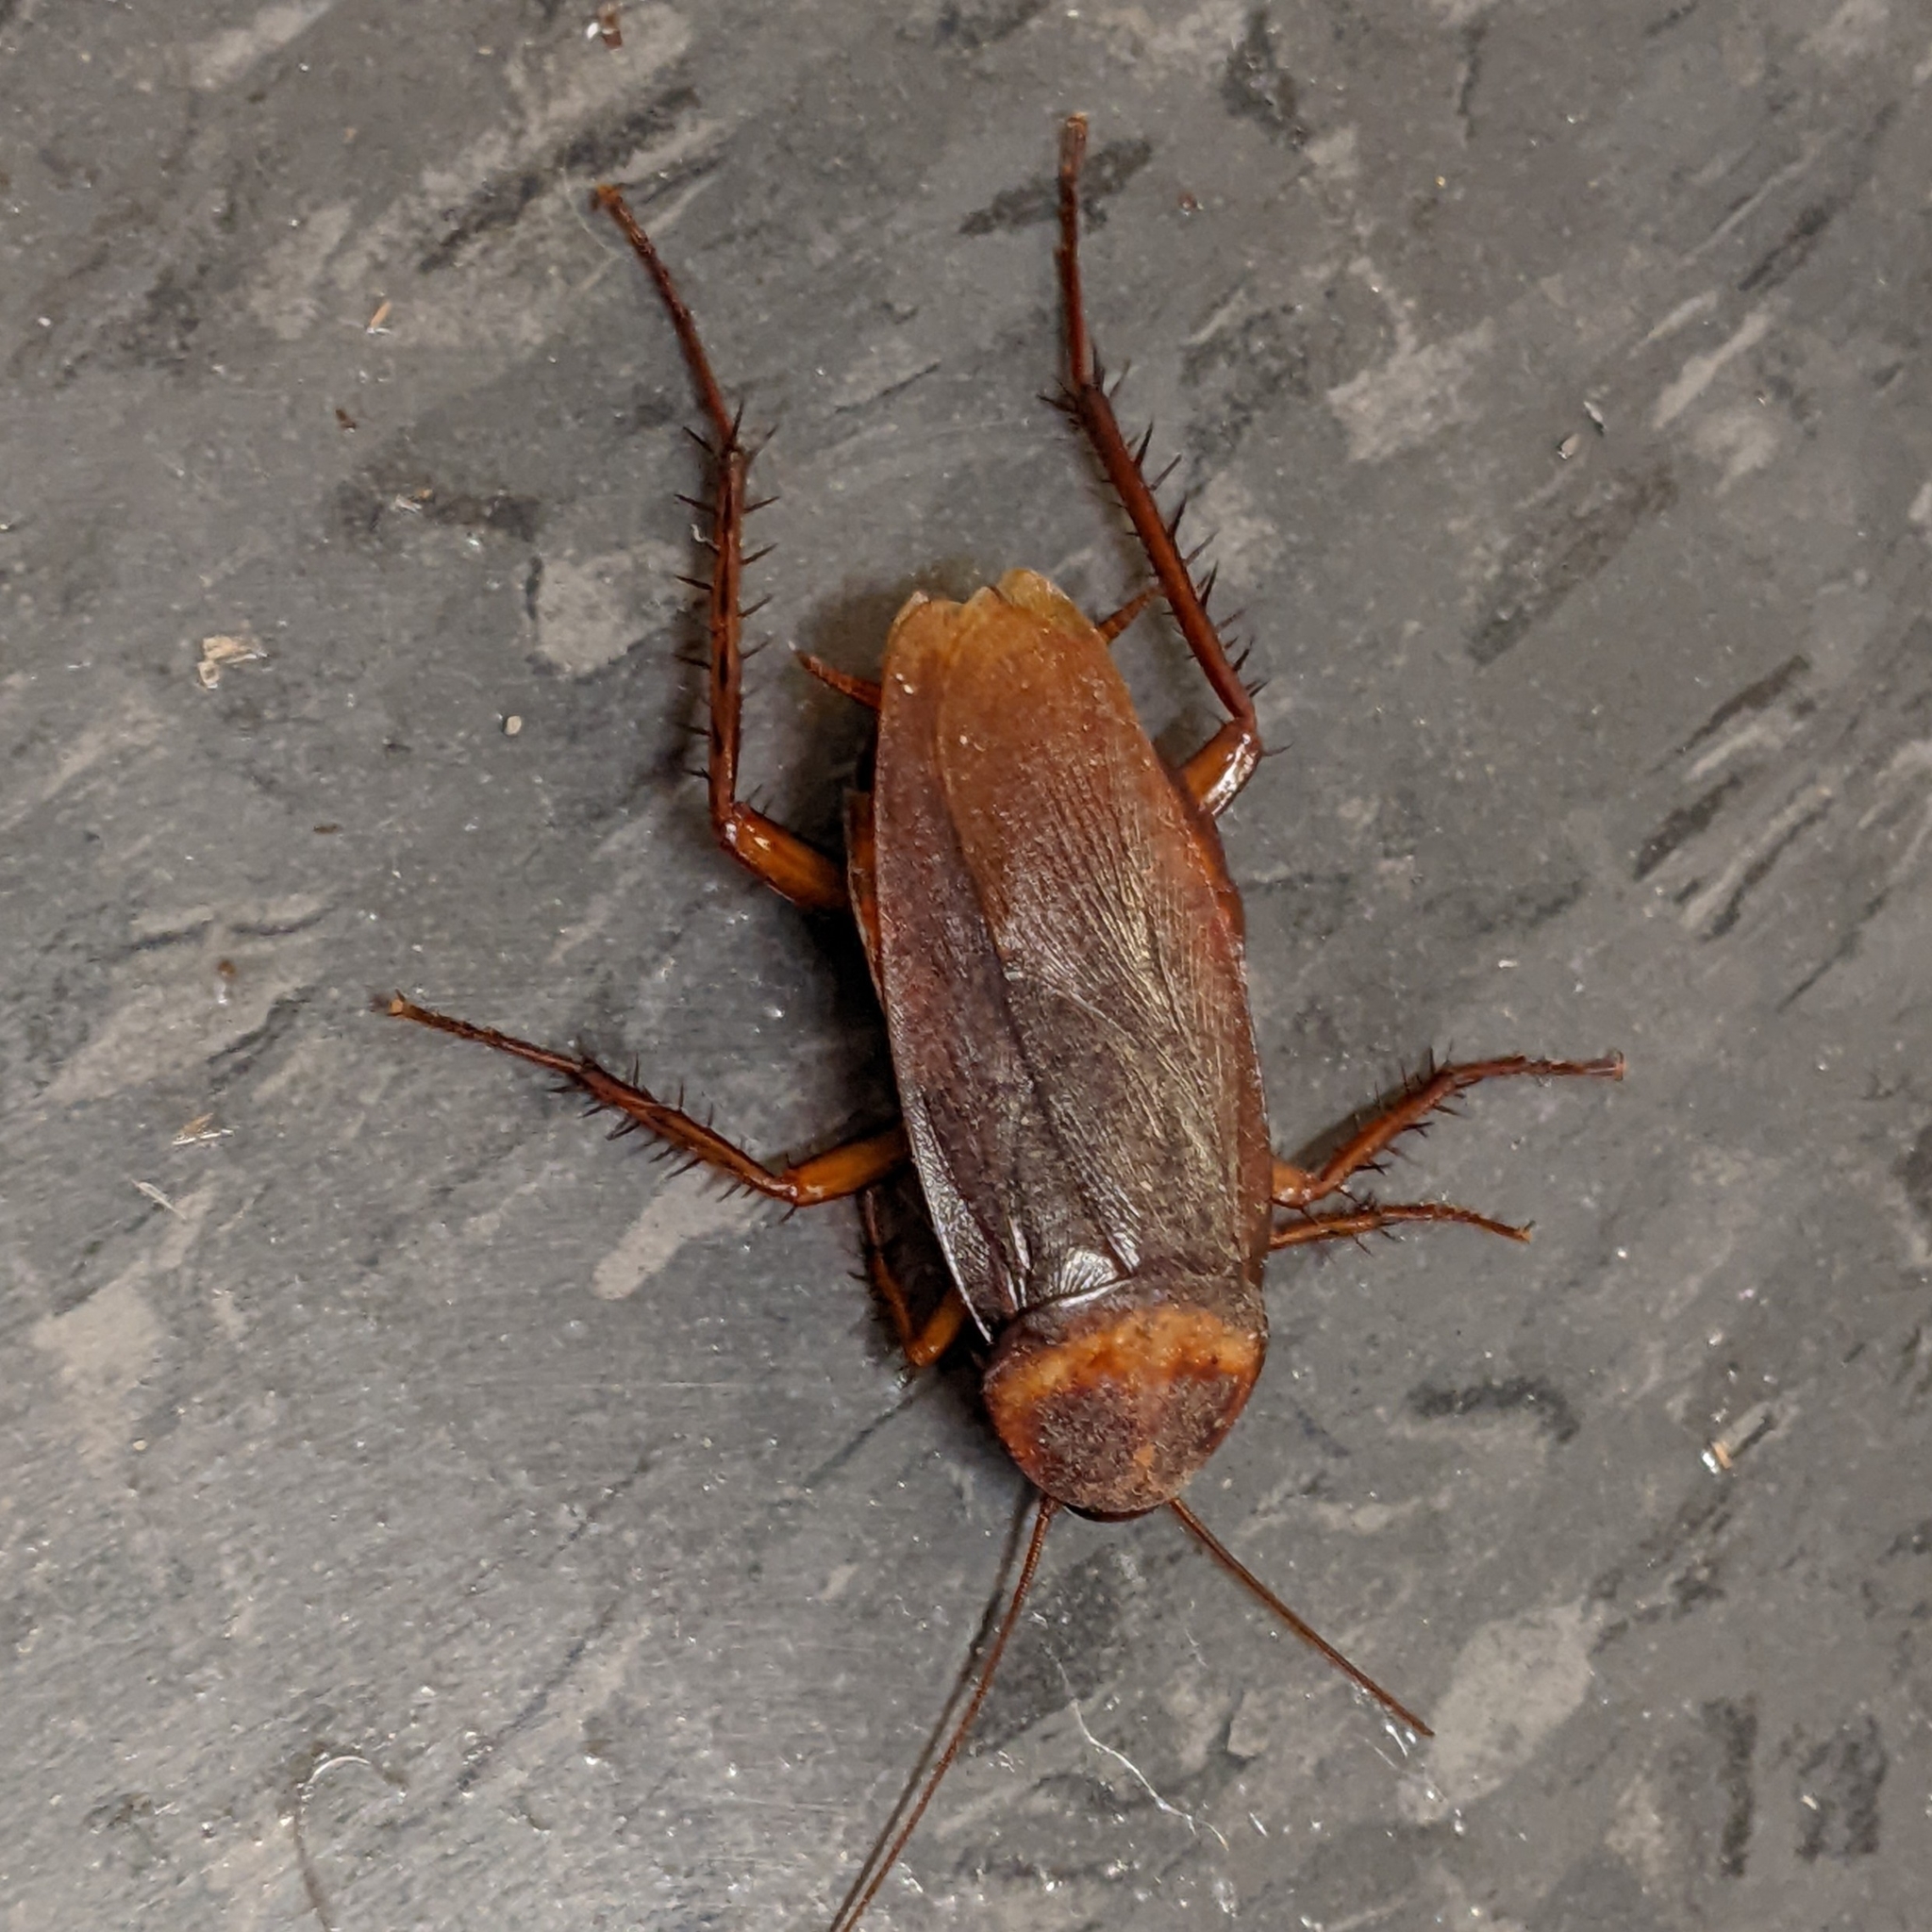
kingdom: Animalia
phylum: Arthropoda
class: Insecta
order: Blattodea
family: Blattidae
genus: Periplaneta
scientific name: Periplaneta americana
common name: American cockroach
